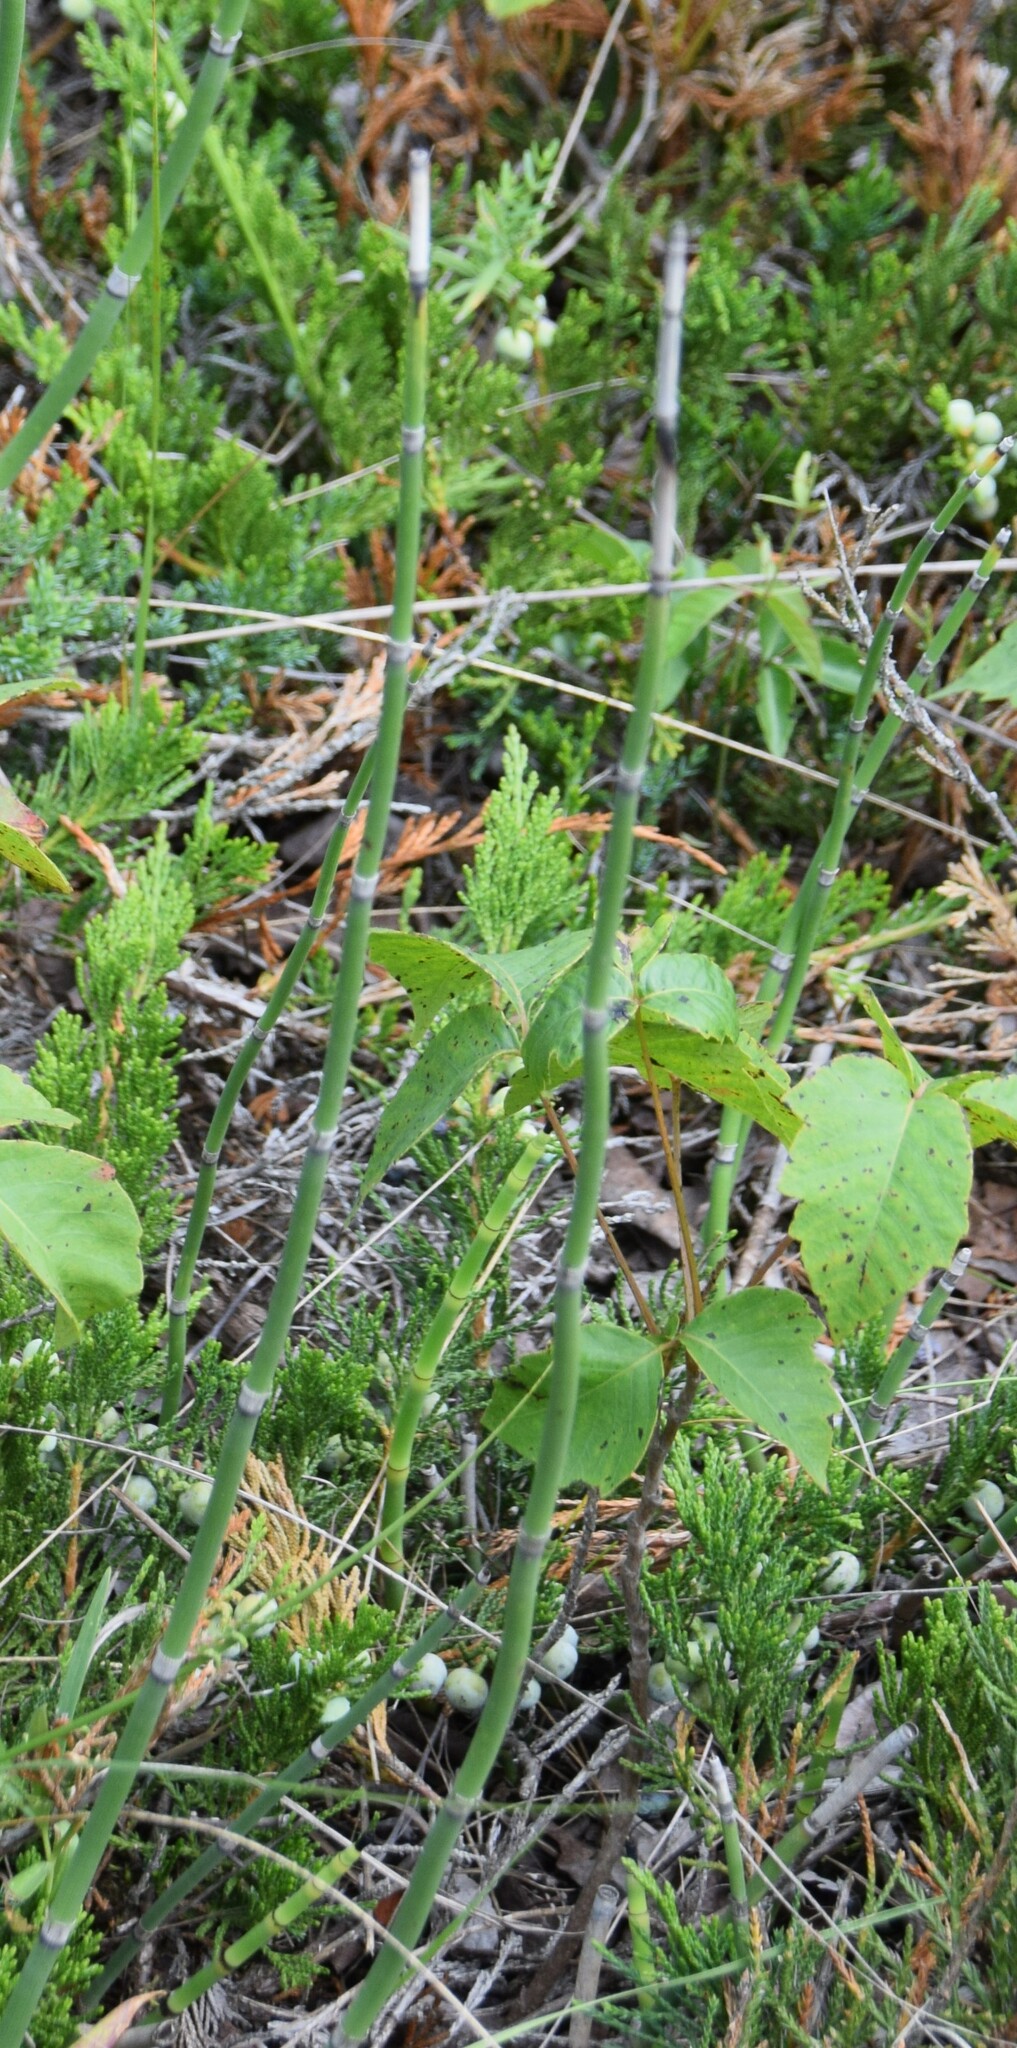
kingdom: Plantae
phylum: Tracheophyta
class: Polypodiopsida
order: Equisetales
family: Equisetaceae
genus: Equisetum
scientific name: Equisetum hyemale
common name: Rough horsetail
